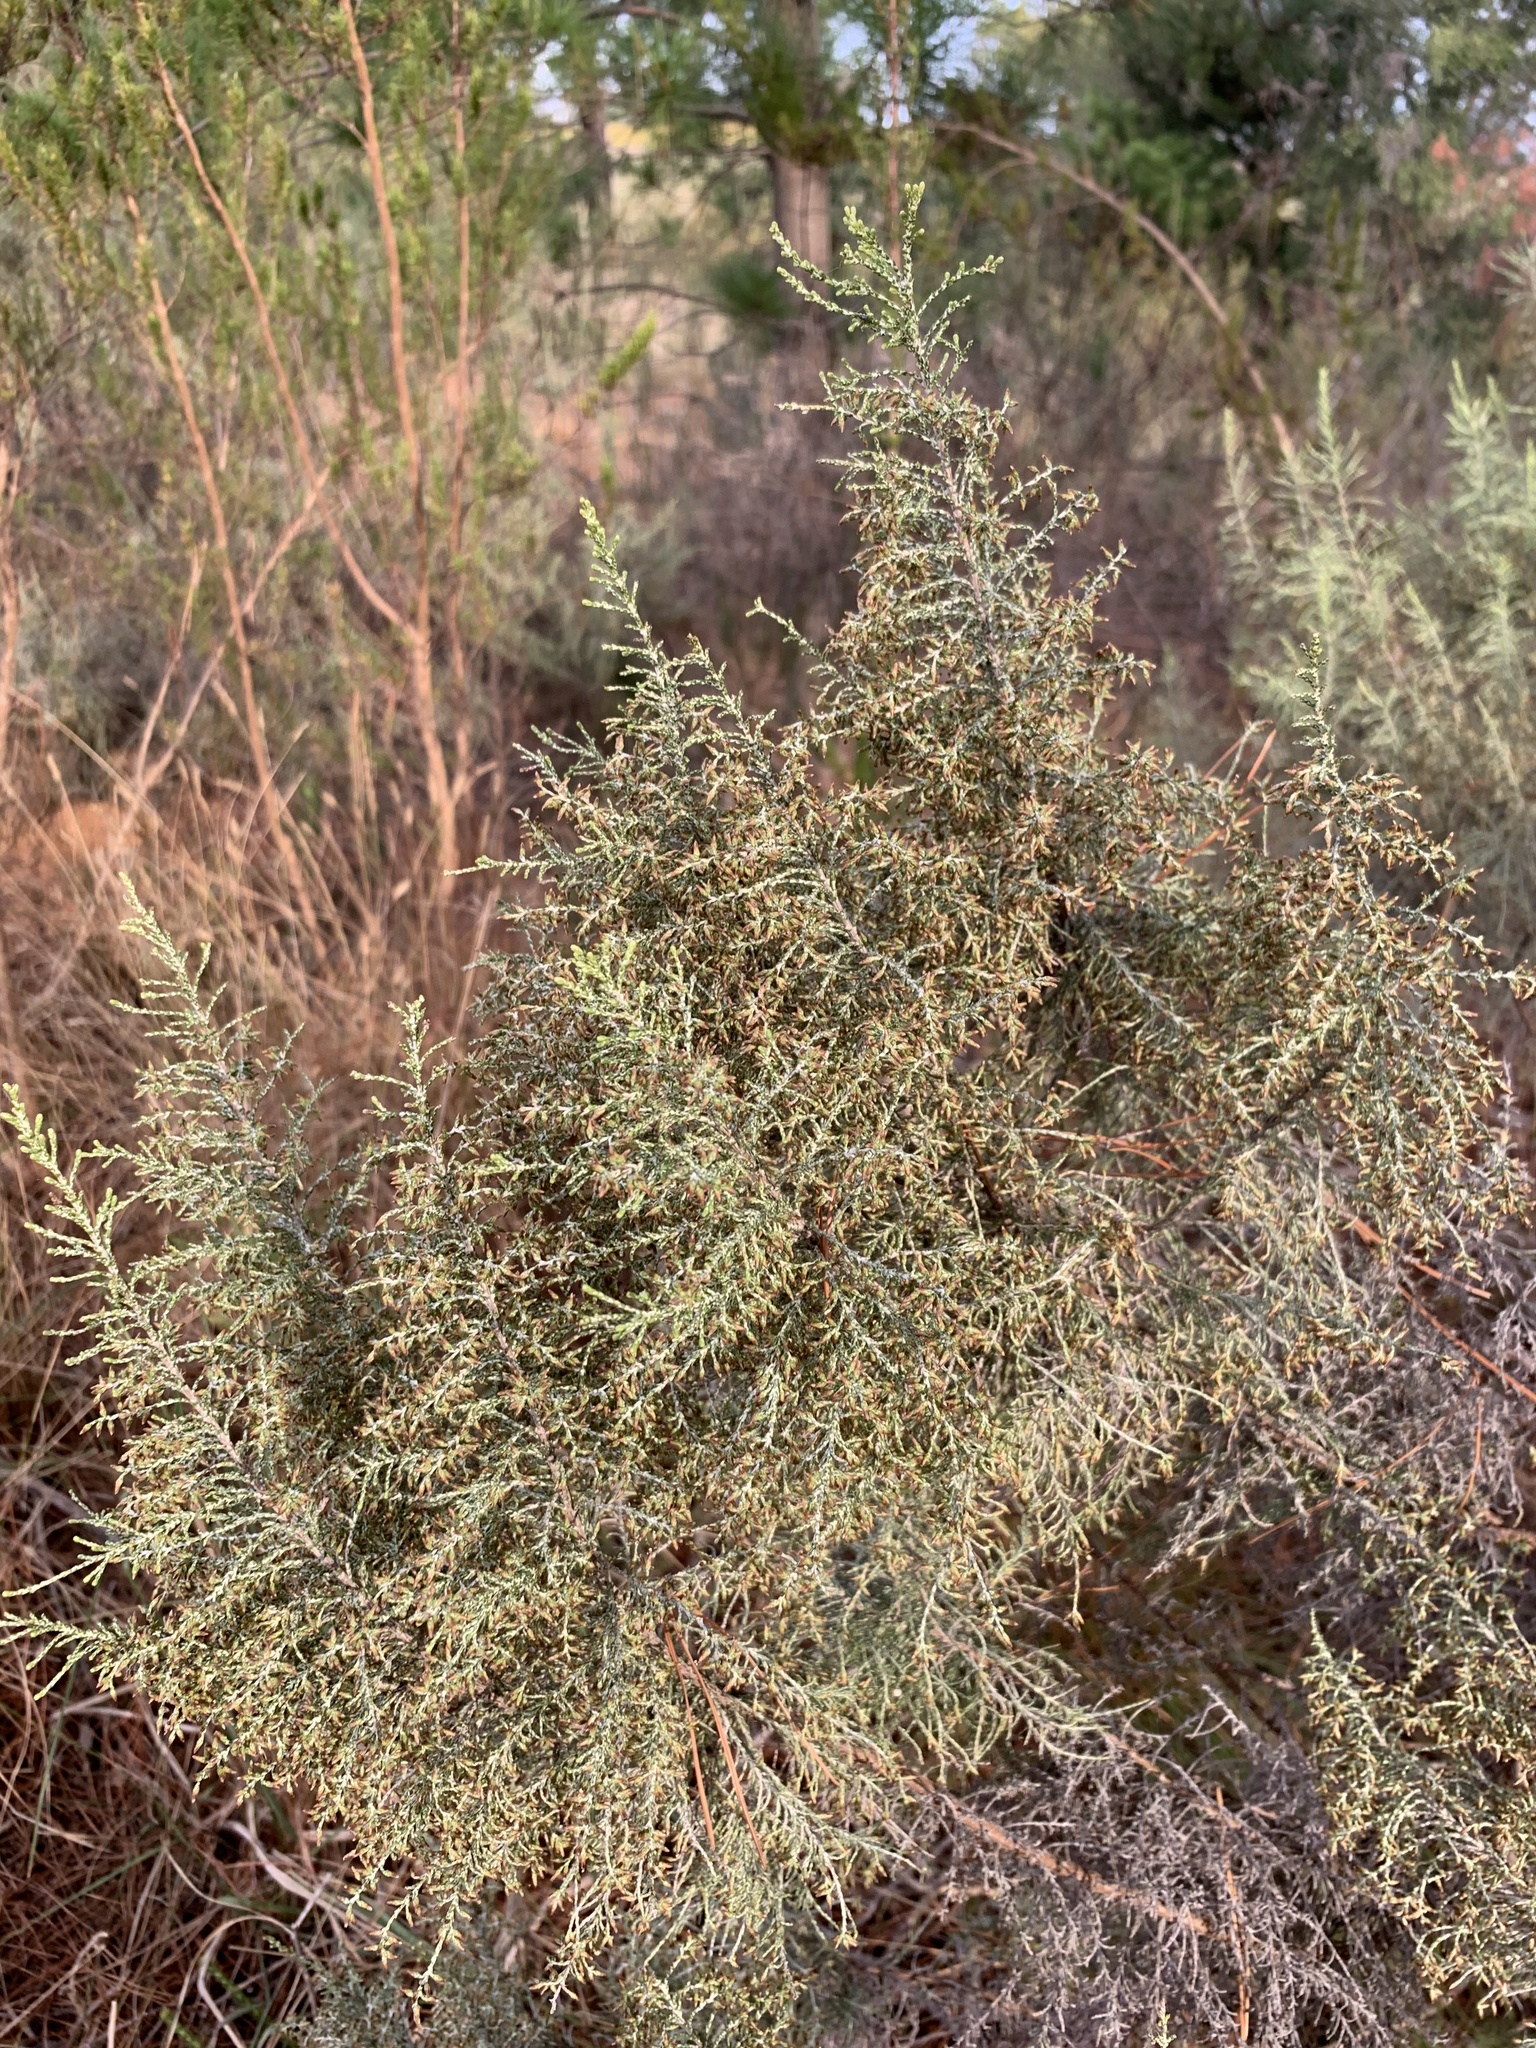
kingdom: Plantae
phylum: Tracheophyta
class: Magnoliopsida
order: Asterales
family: Asteraceae
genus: Dicerothamnus
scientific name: Dicerothamnus rhinocerotis
